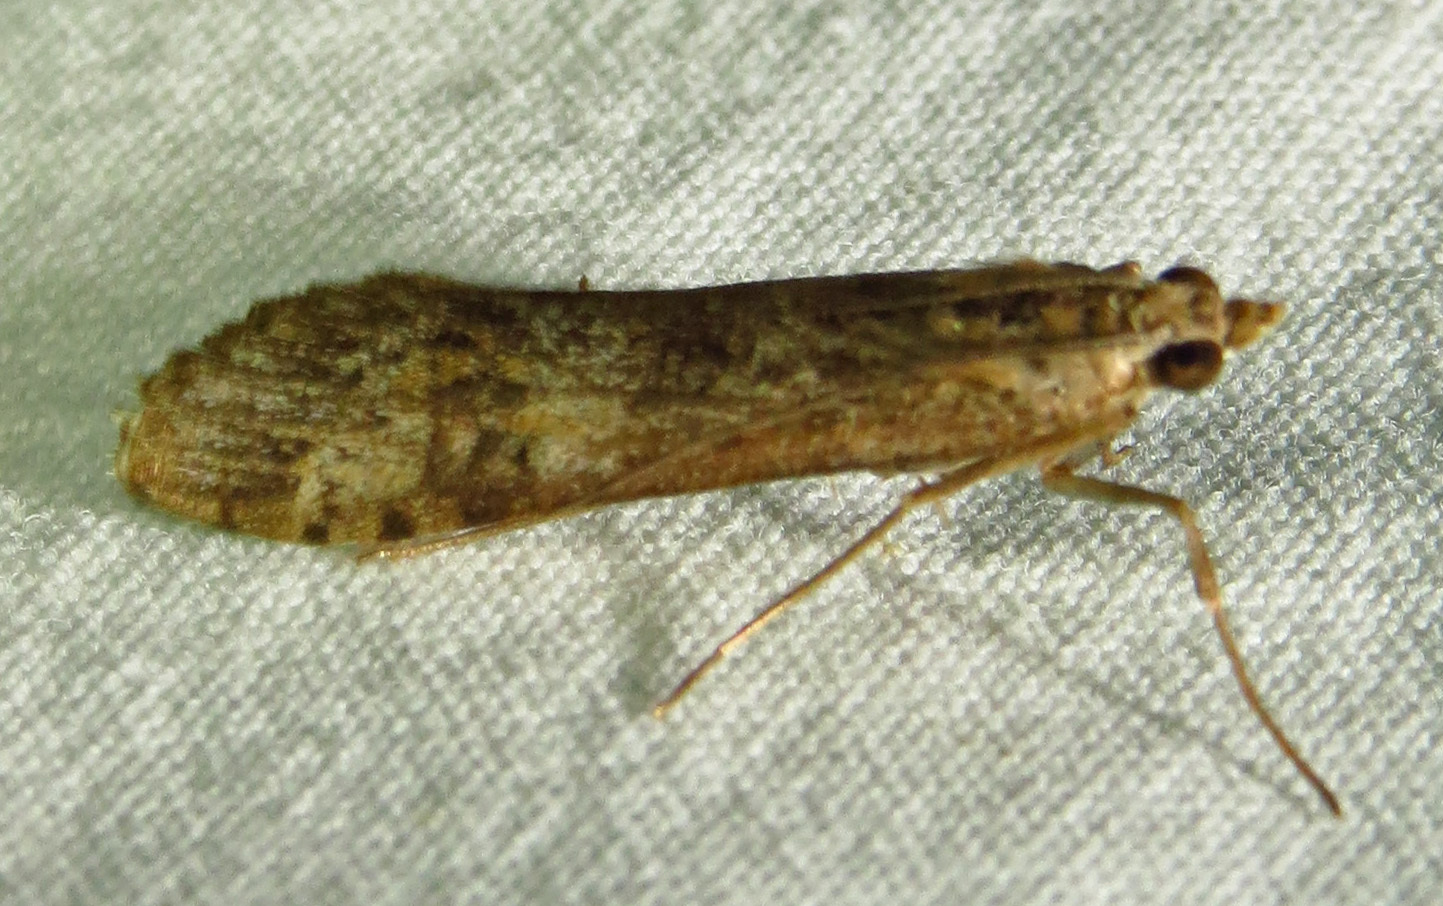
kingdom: Animalia
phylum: Arthropoda
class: Insecta
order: Lepidoptera
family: Crambidae
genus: Nomophila
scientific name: Nomophila nearctica
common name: American rush veneer
